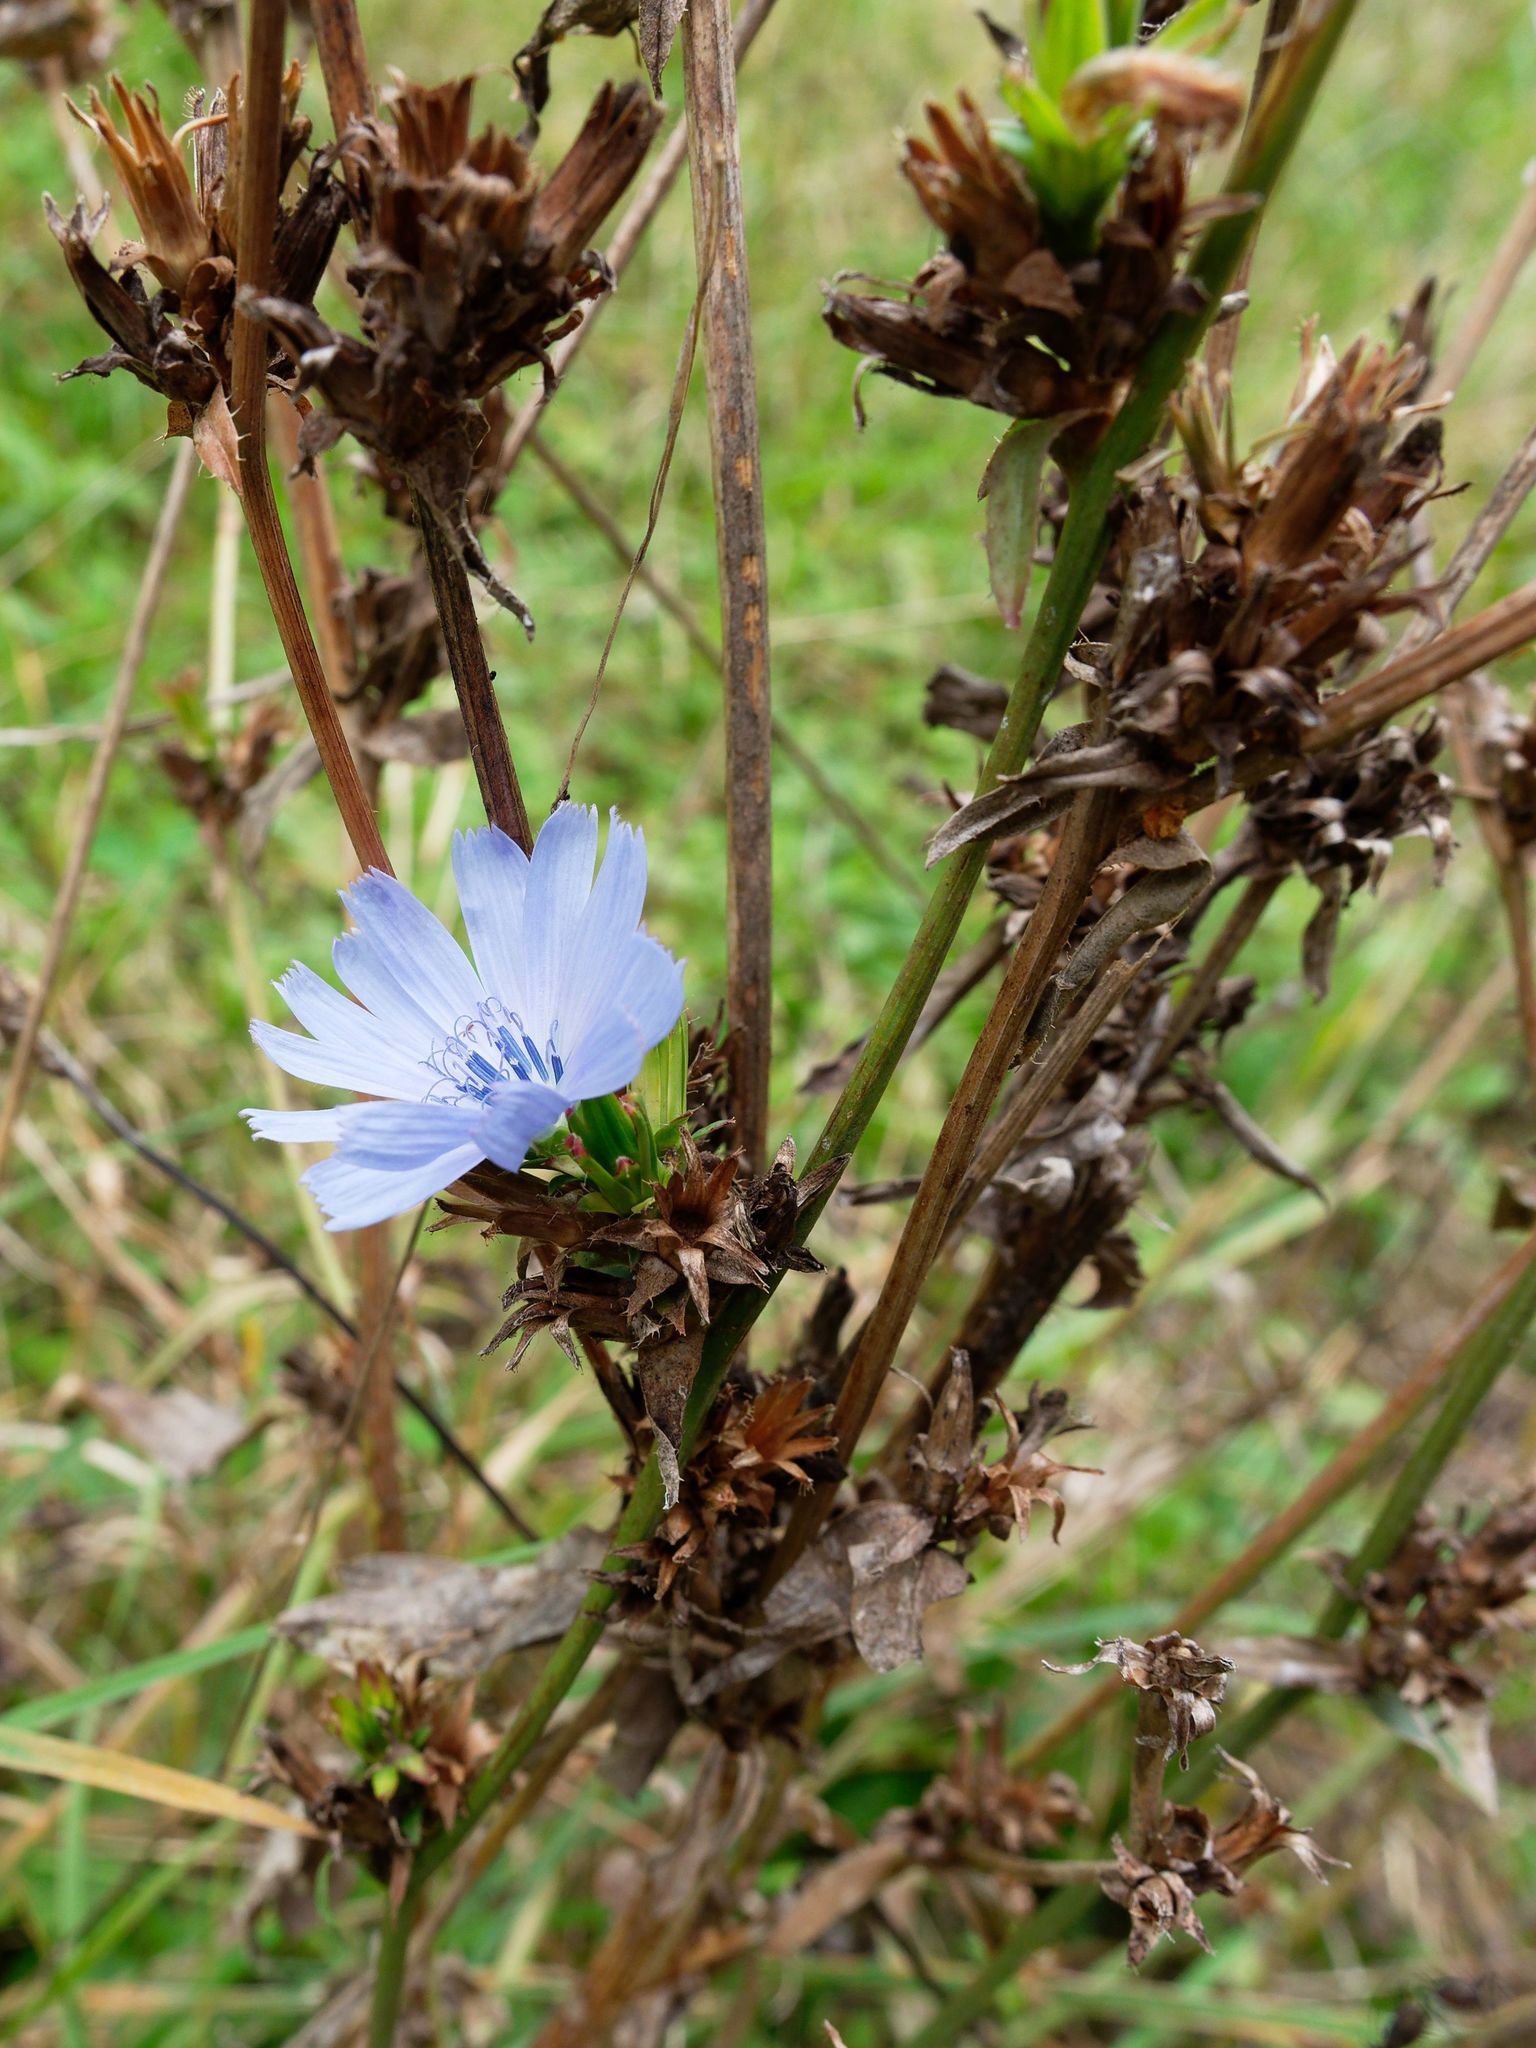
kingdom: Plantae
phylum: Tracheophyta
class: Magnoliopsida
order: Asterales
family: Asteraceae
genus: Cichorium
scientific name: Cichorium intybus
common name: Chicory
